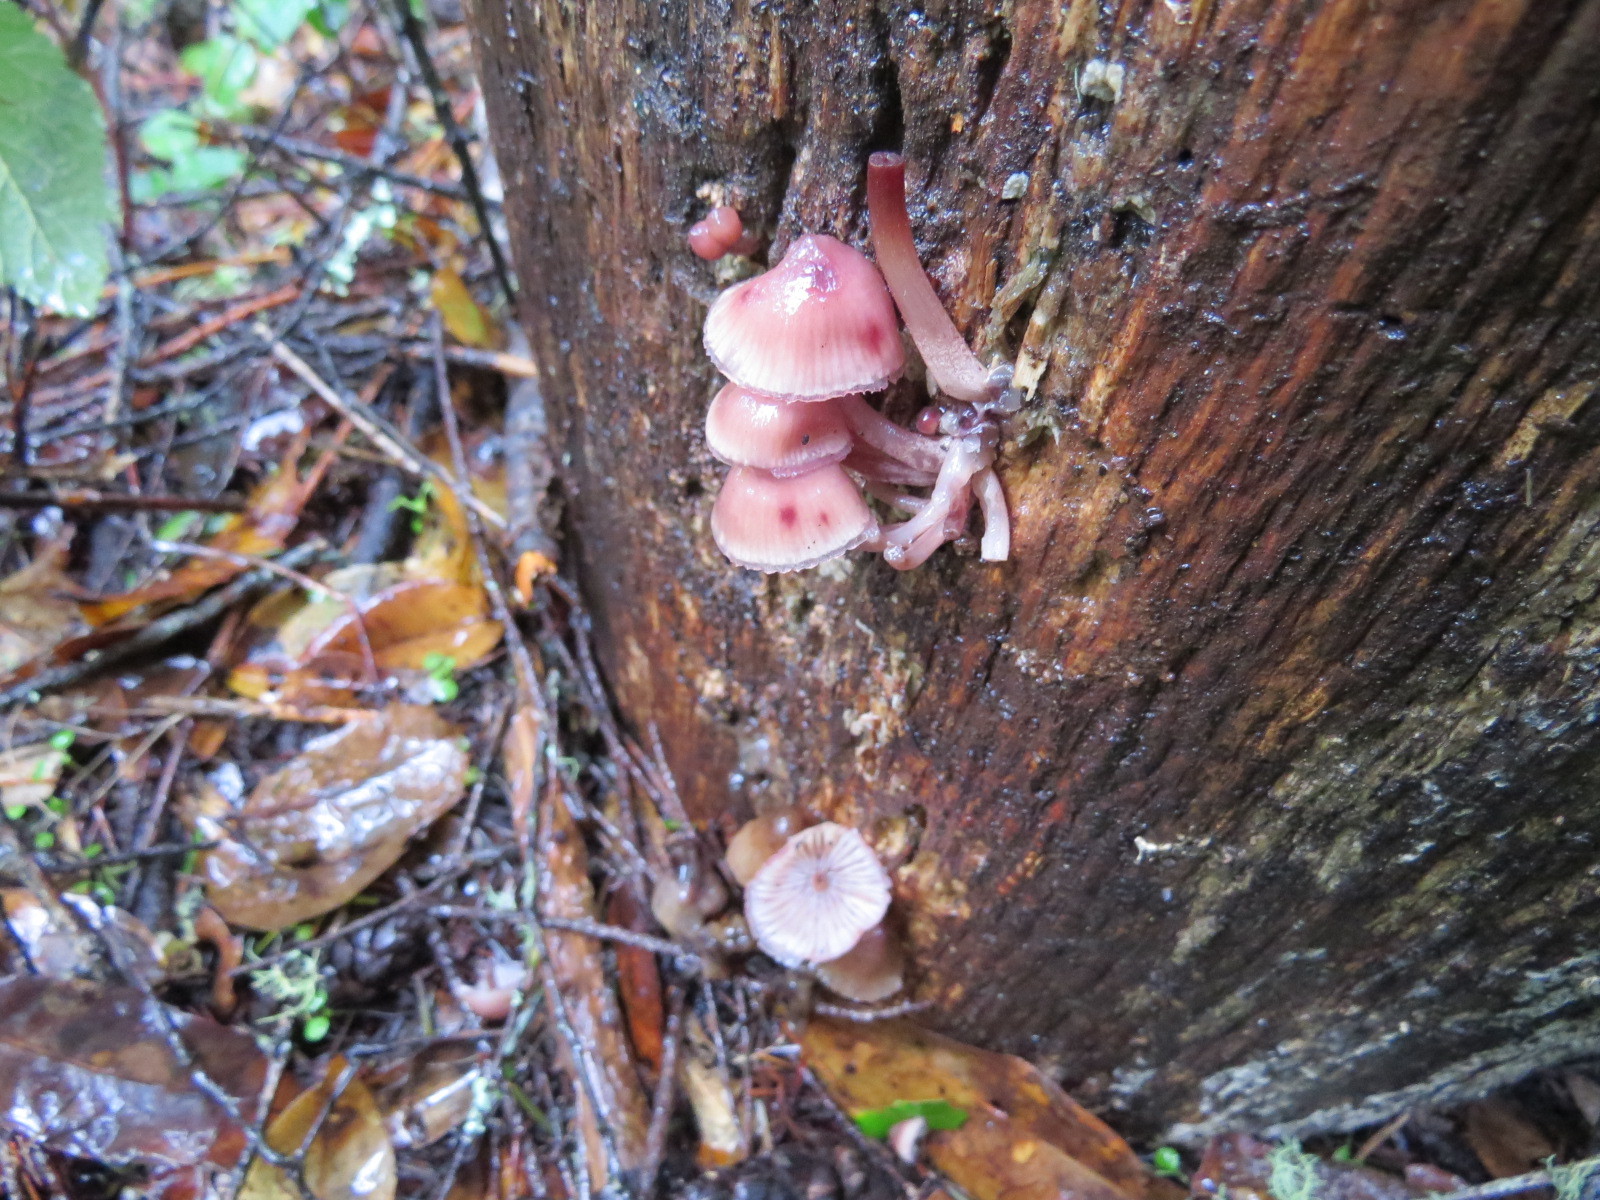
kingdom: Fungi
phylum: Basidiomycota
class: Agaricomycetes
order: Agaricales
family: Mycenaceae
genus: Mycena
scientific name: Mycena haematopus
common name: Burgundydrop bonnet
